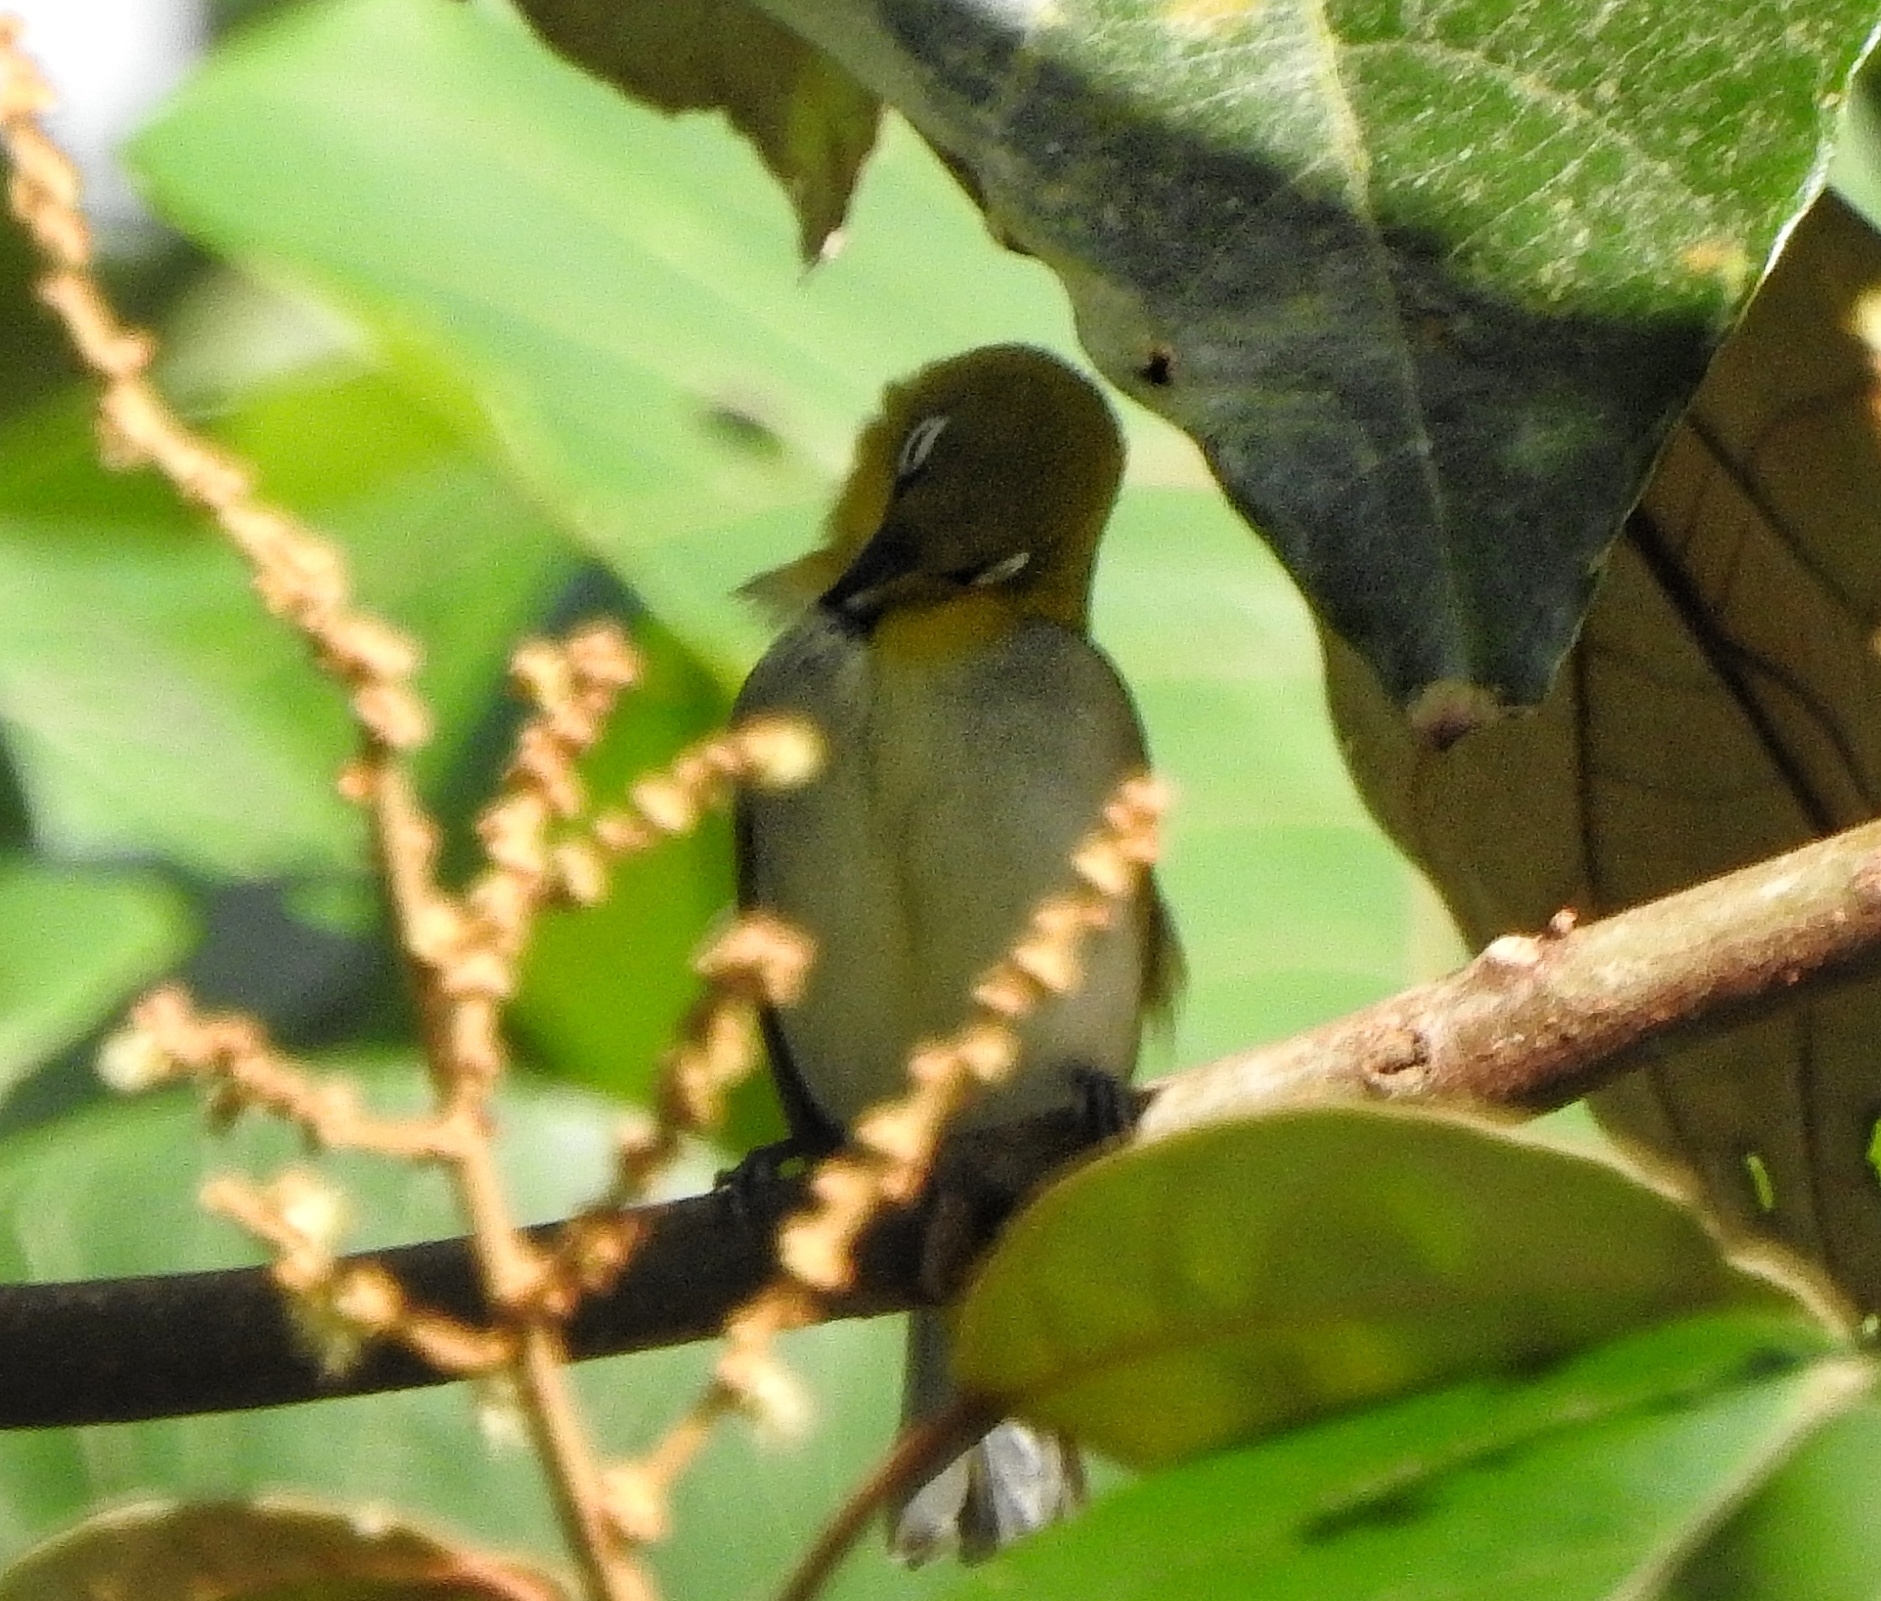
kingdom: Animalia
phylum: Chordata
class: Aves
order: Passeriformes
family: Zosteropidae
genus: Zosterops
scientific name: Zosterops palpebrosus
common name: Oriental white-eye
